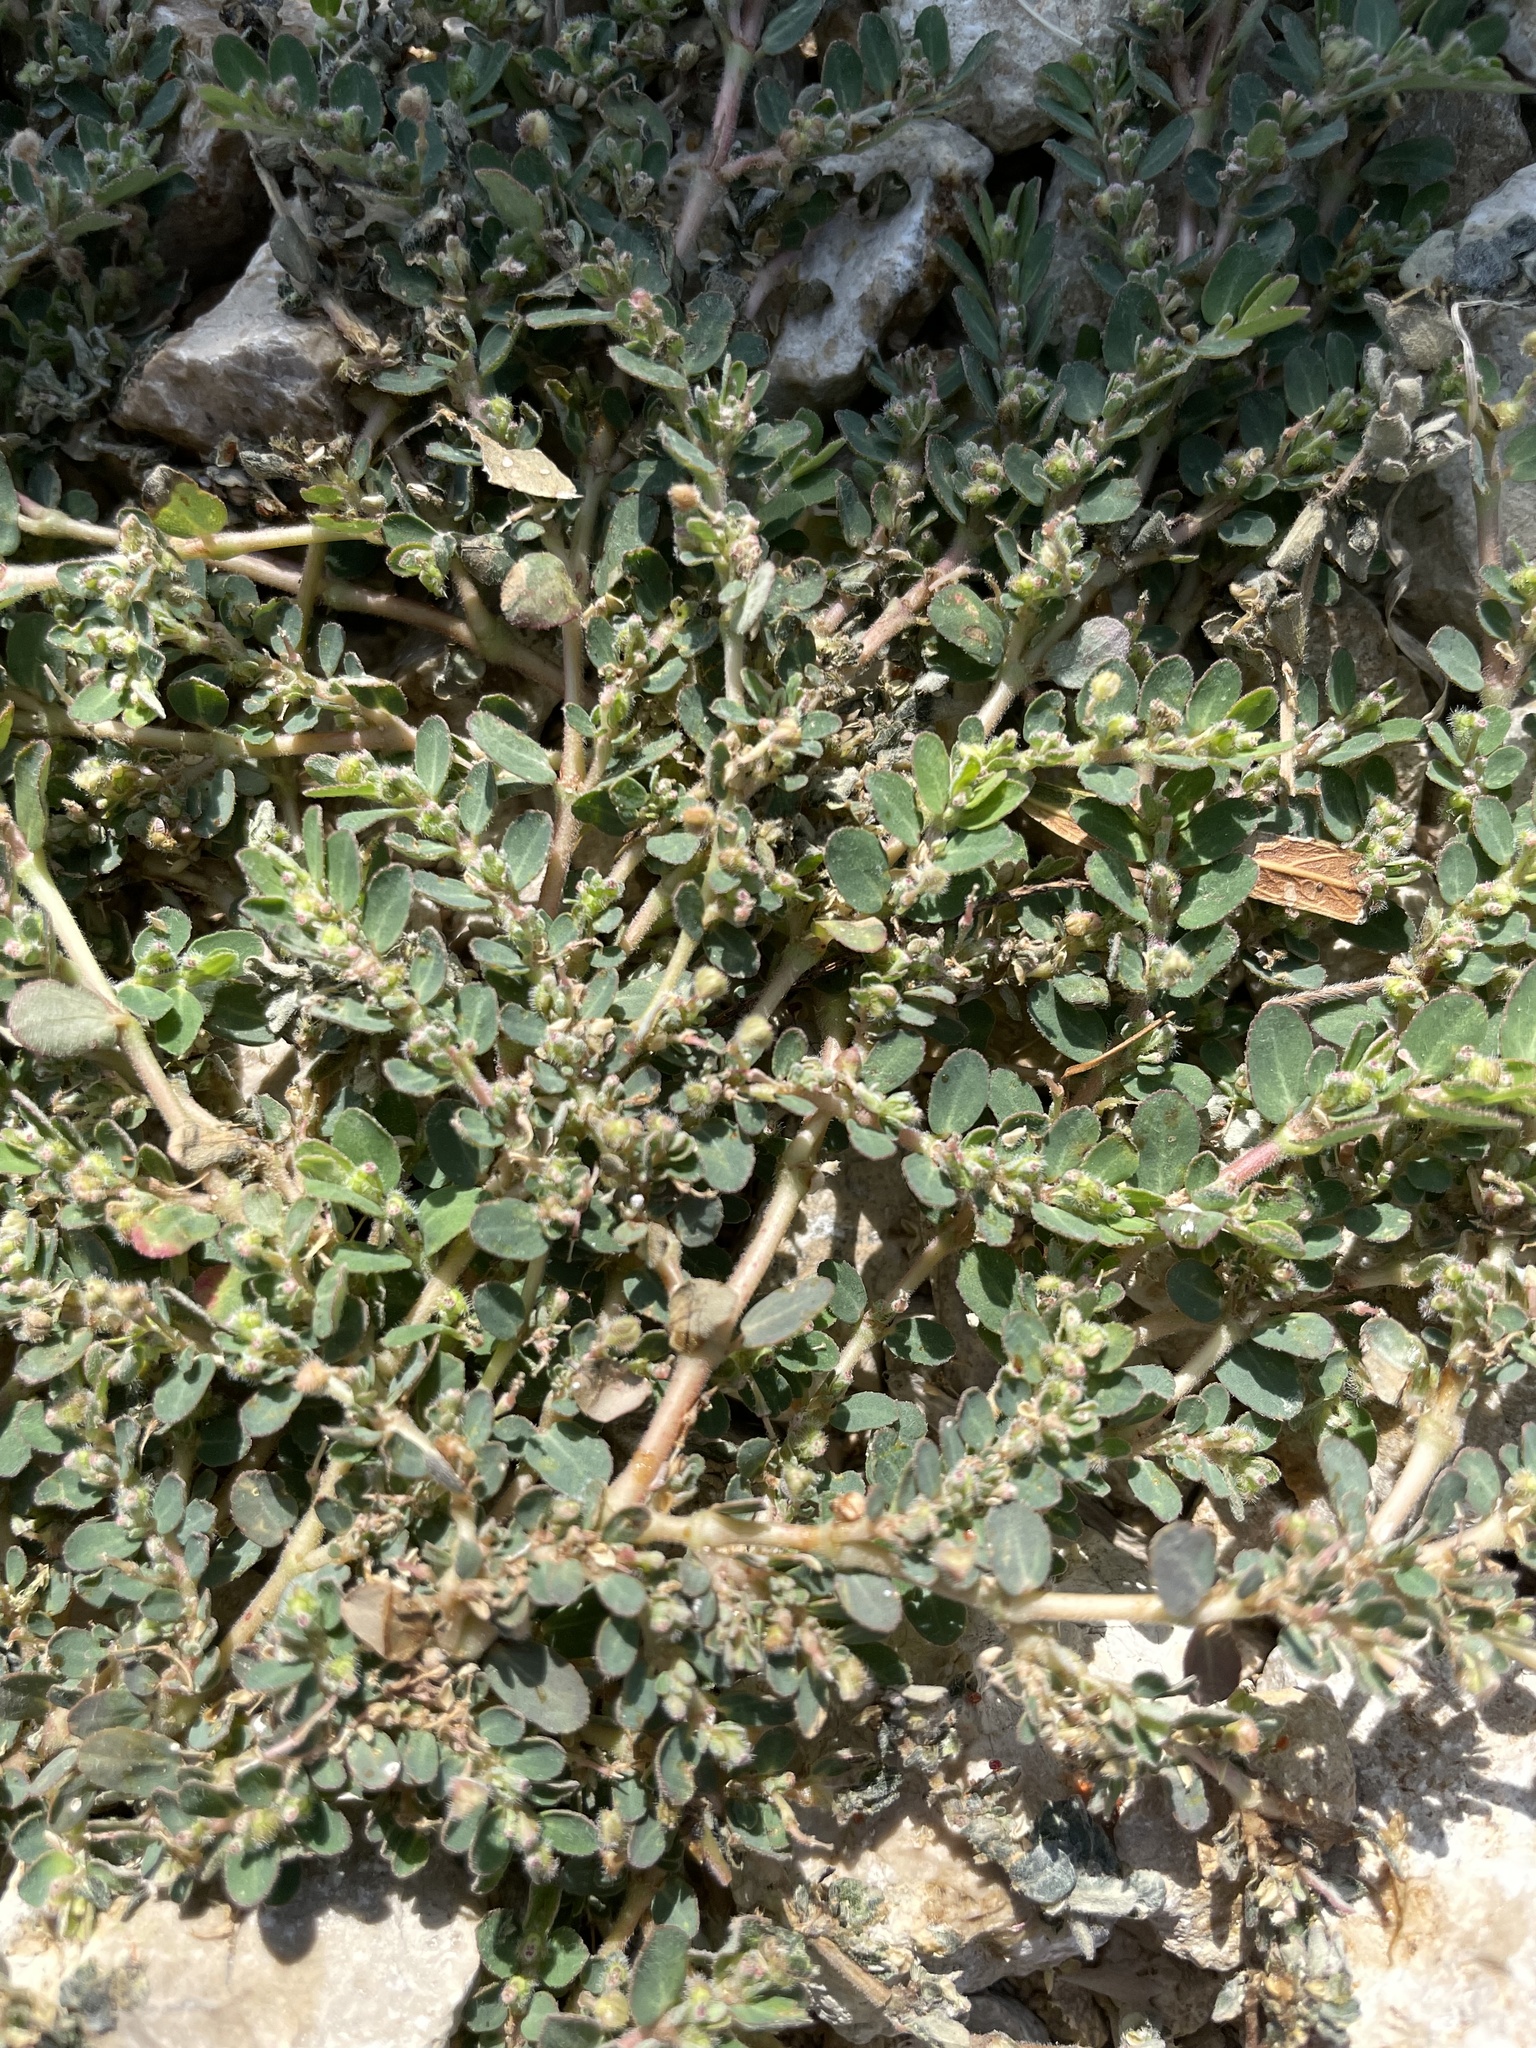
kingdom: Plantae
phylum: Tracheophyta
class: Magnoliopsida
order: Malpighiales
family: Euphorbiaceae
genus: Euphorbia
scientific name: Euphorbia prostrata
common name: Prostrate sandmat
